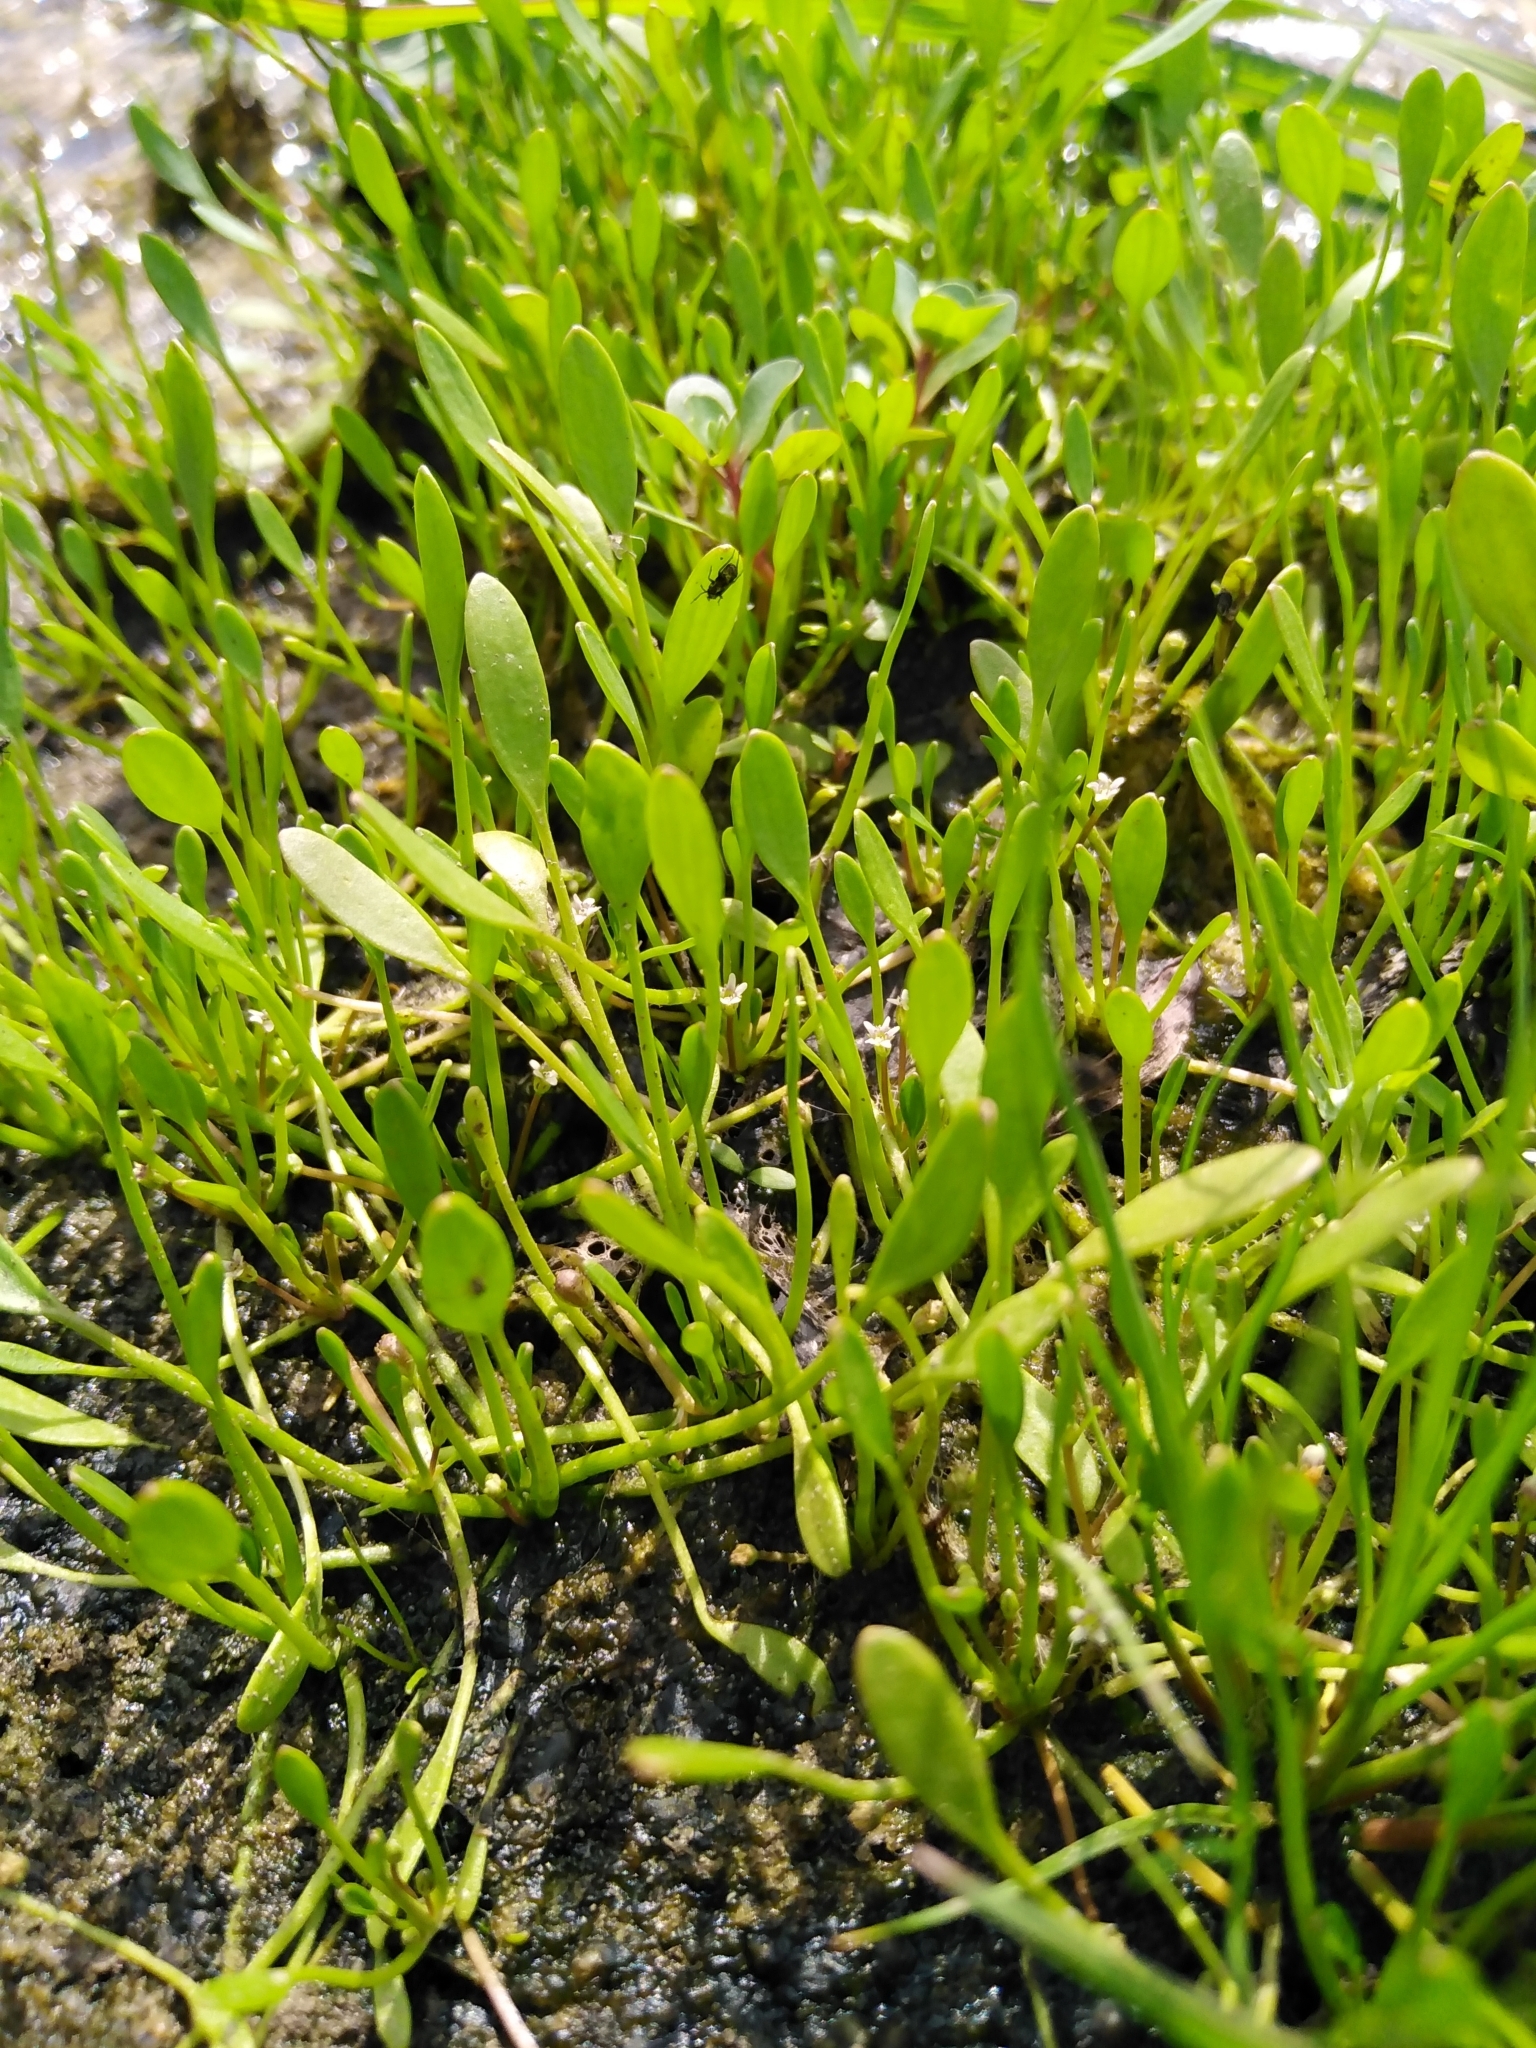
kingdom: Plantae
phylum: Tracheophyta
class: Magnoliopsida
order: Lamiales
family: Scrophulariaceae
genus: Limosella
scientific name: Limosella aquatica
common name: Mudwort
